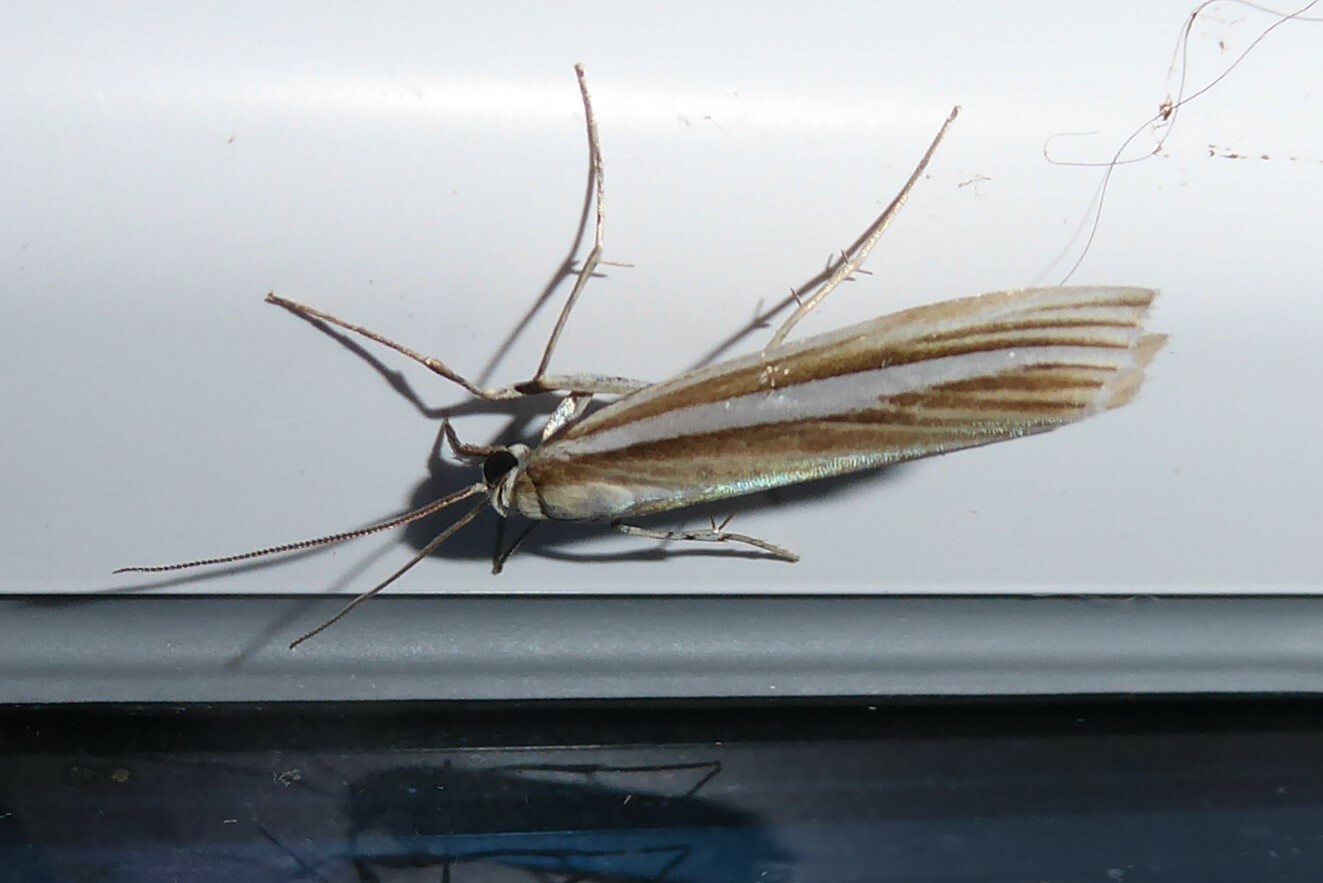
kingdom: Animalia
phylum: Arthropoda
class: Insecta
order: Lepidoptera
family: Crambidae
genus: Orocrambus
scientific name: Orocrambus lewisi
